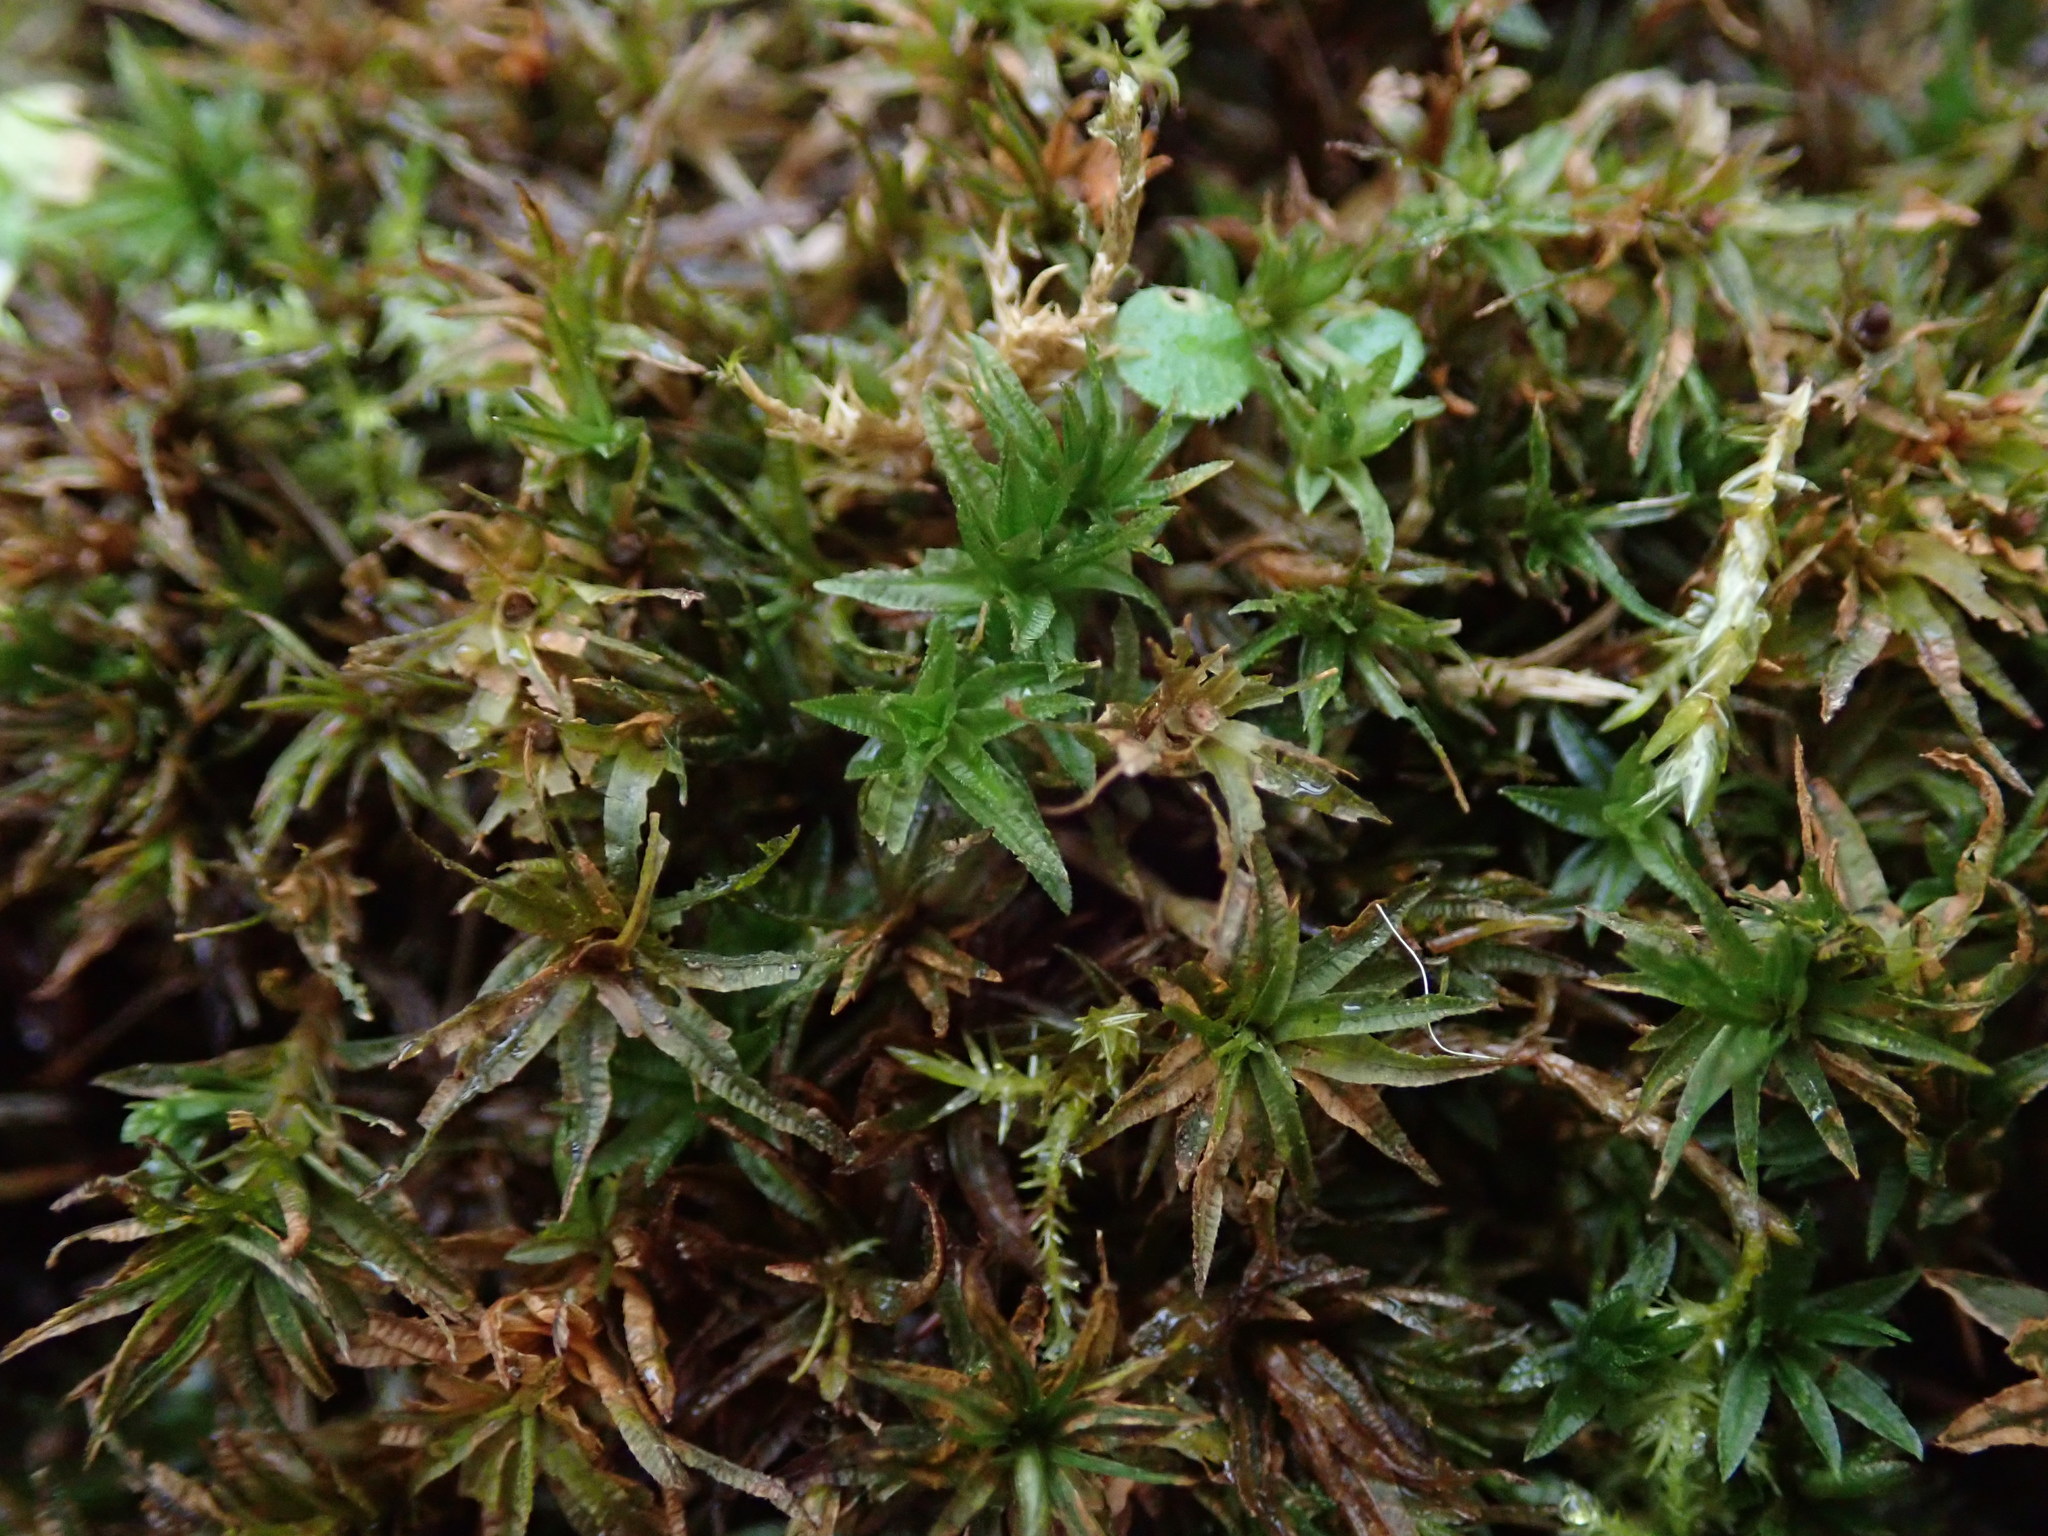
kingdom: Plantae
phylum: Bryophyta
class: Polytrichopsida
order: Polytrichales
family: Polytrichaceae
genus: Atrichum
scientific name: Atrichum undulatum
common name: Common smoothcap
